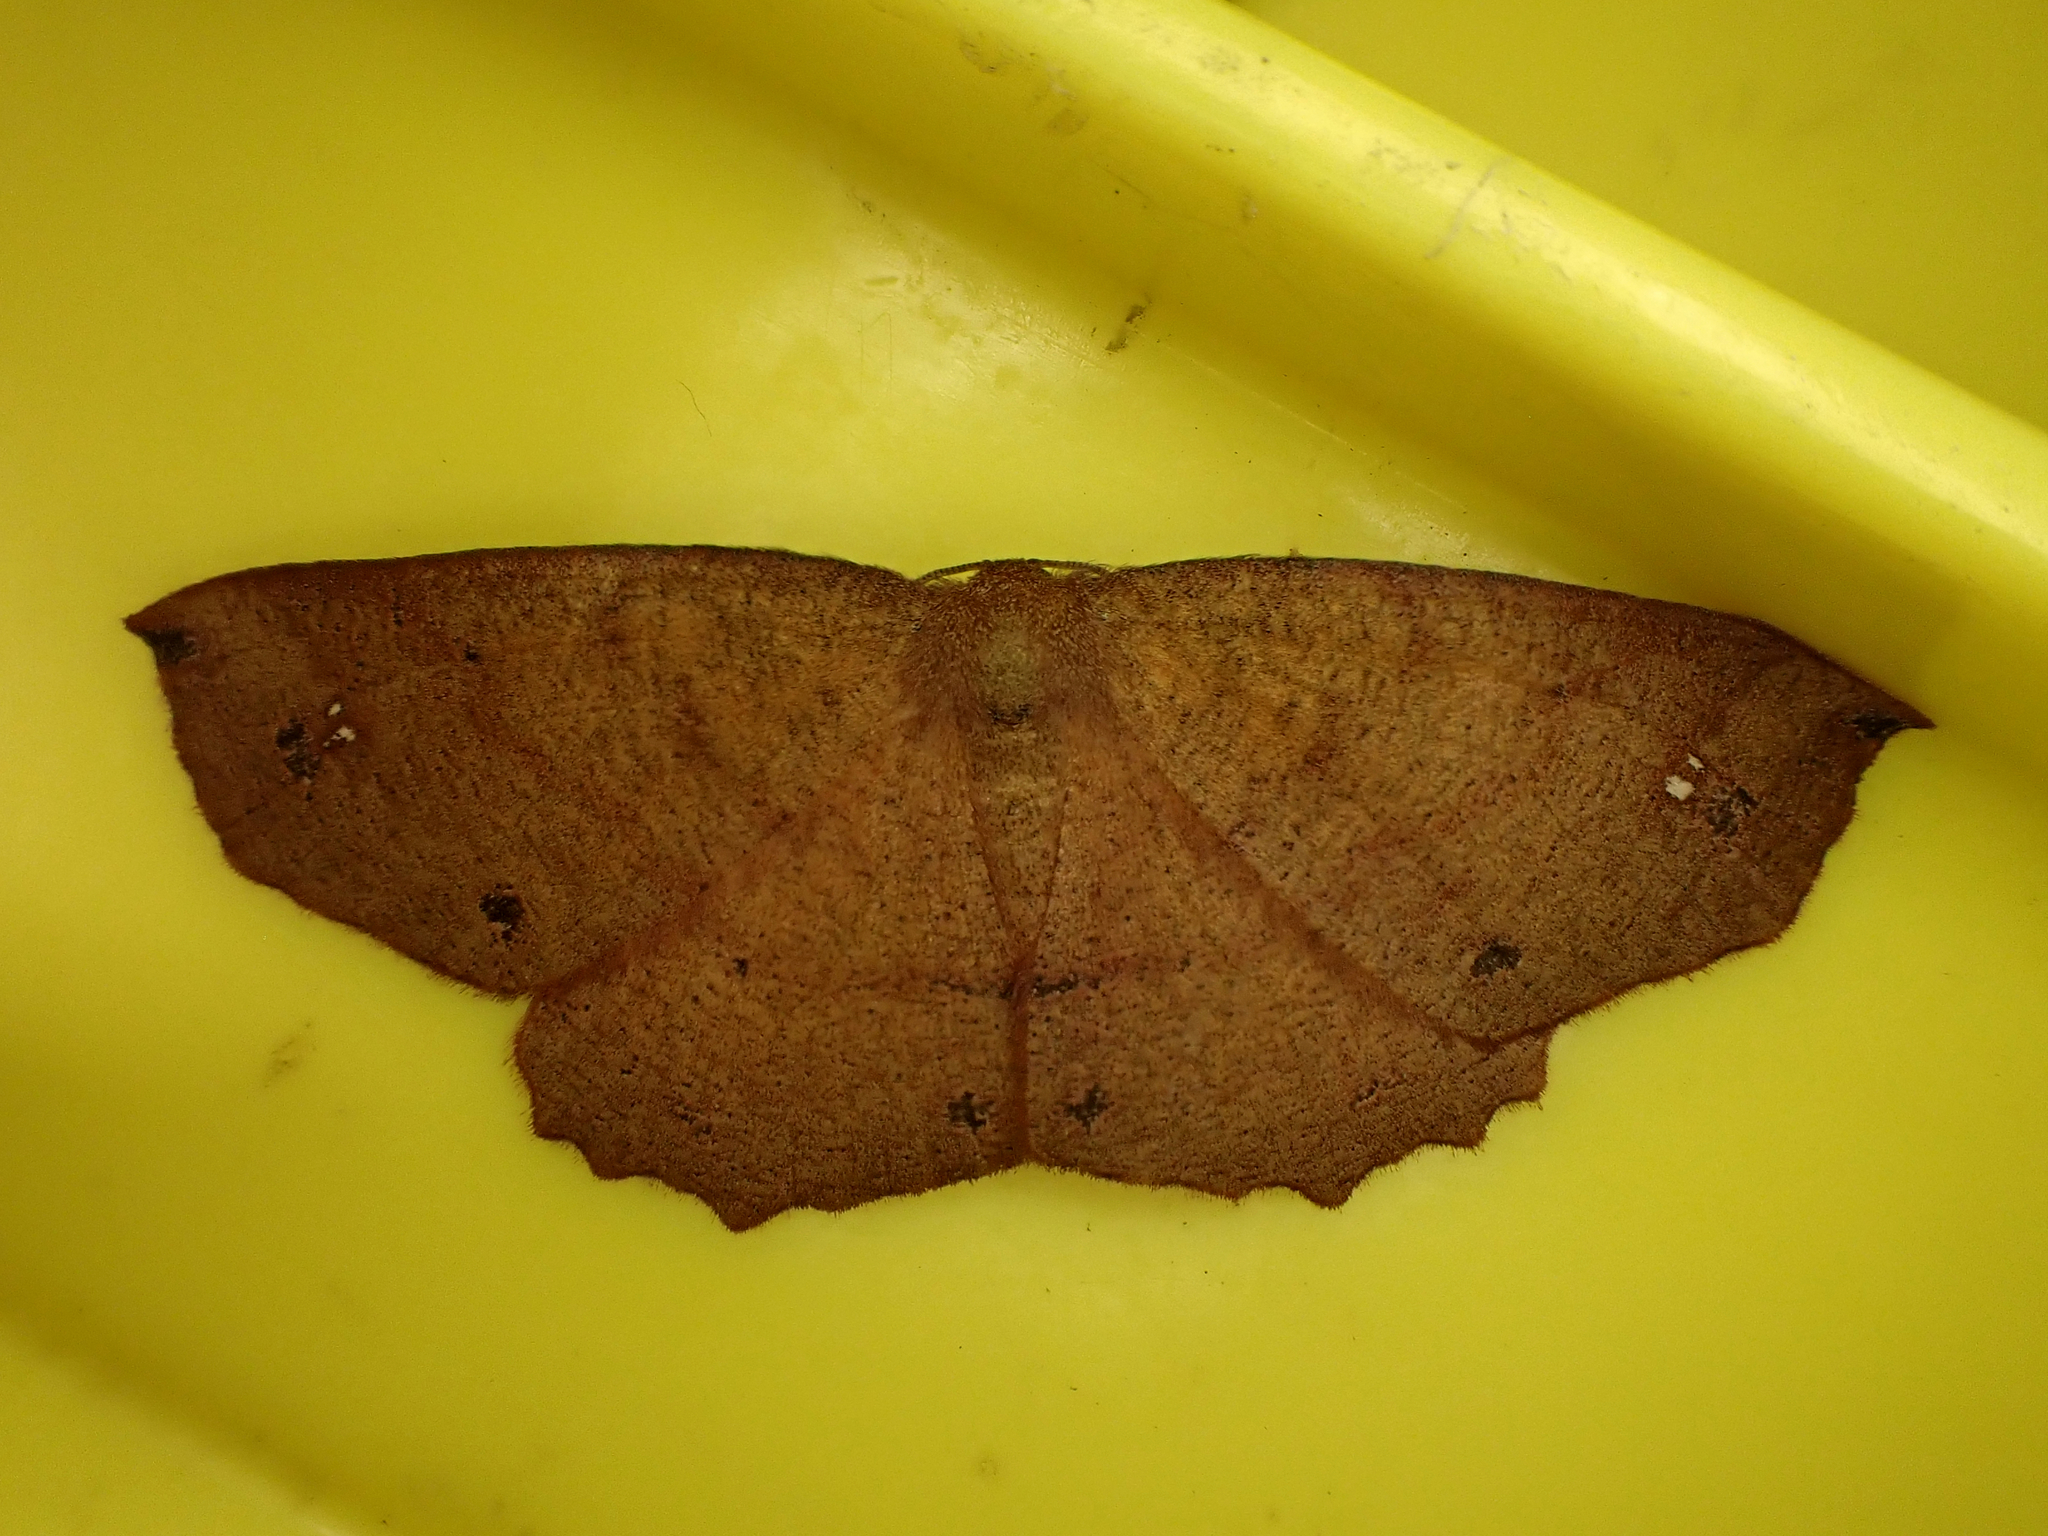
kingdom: Animalia
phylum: Arthropoda
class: Insecta
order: Lepidoptera
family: Geometridae
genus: Xyridacma
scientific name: Xyridacma ustaria
